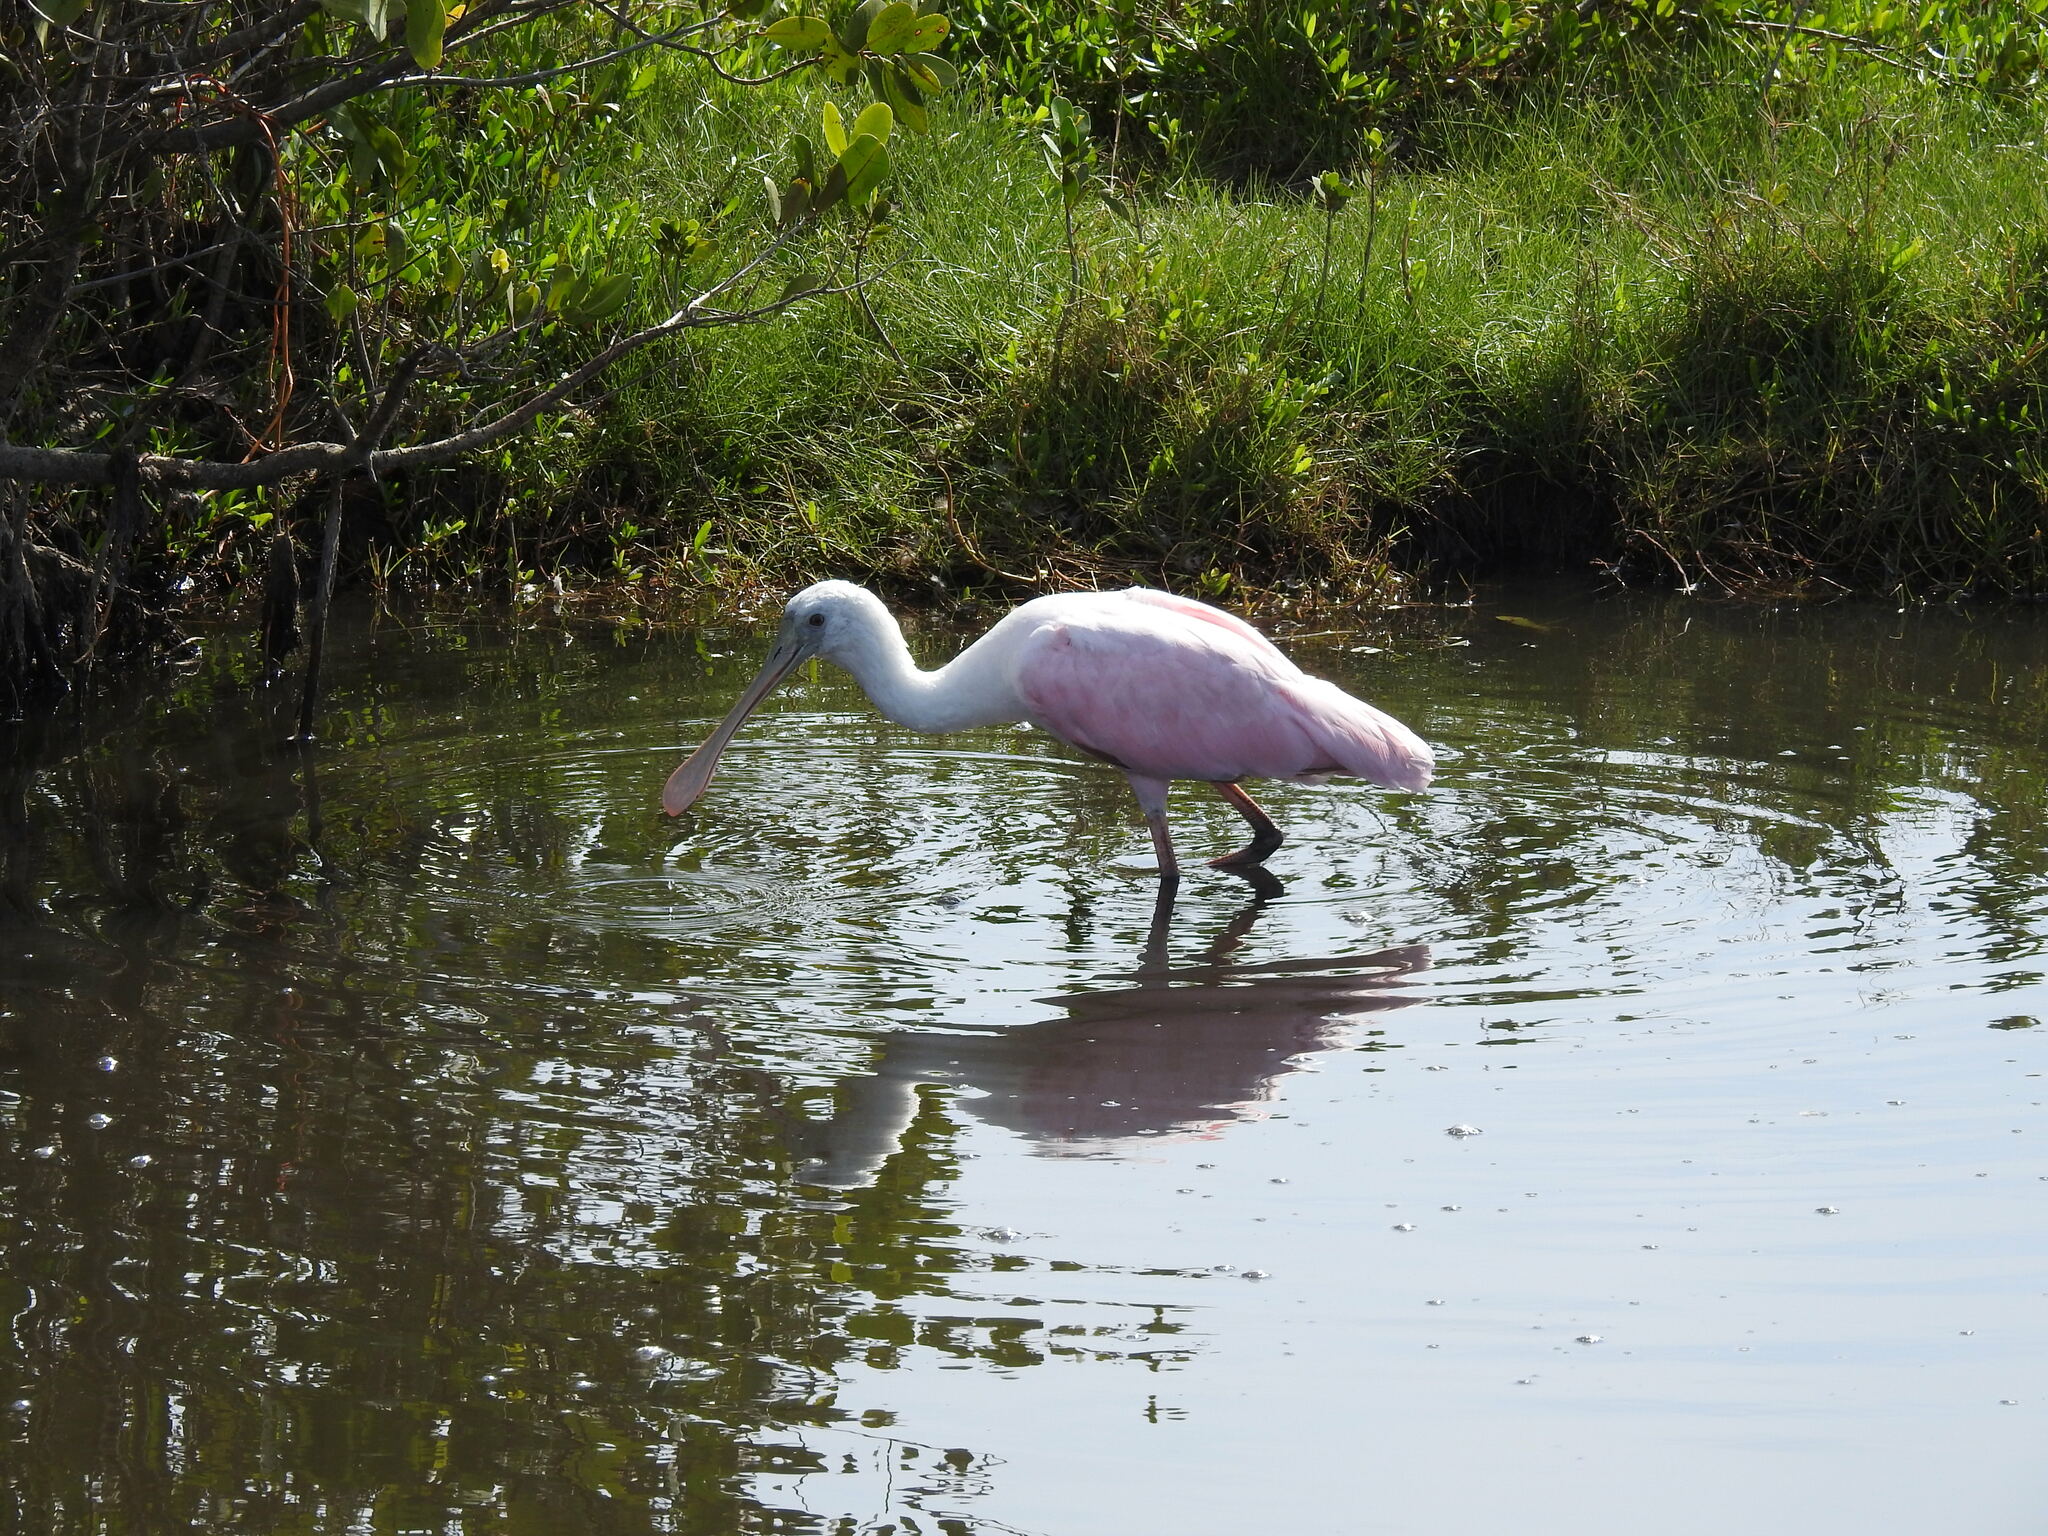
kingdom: Animalia
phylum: Chordata
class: Aves
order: Pelecaniformes
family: Threskiornithidae
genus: Platalea
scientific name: Platalea ajaja
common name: Roseate spoonbill
